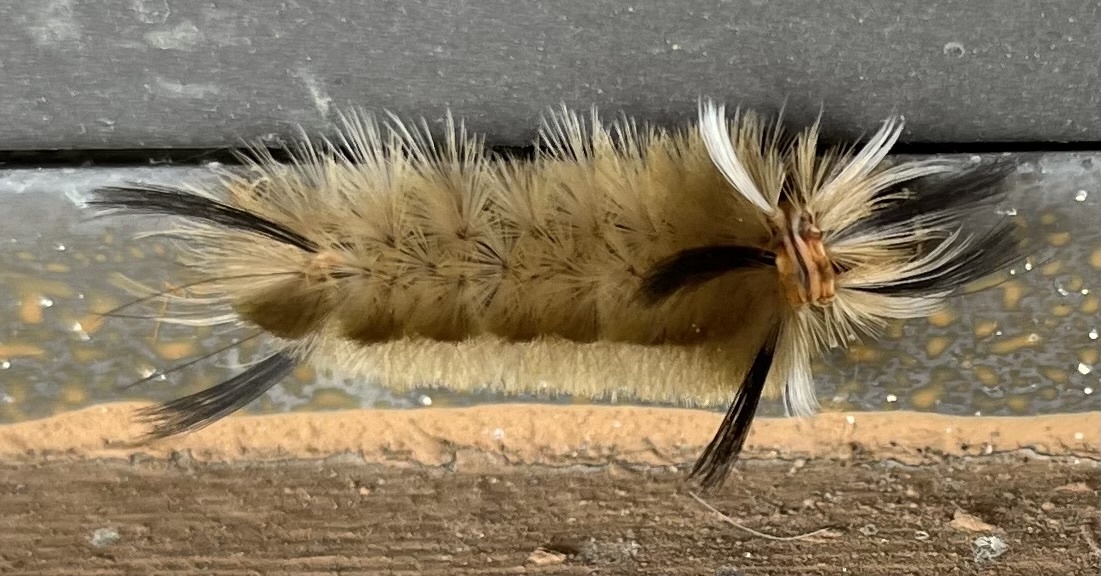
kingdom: Animalia
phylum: Arthropoda
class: Insecta
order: Lepidoptera
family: Erebidae
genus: Halysidota
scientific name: Halysidota tessellaris
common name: Banded tussock moth
